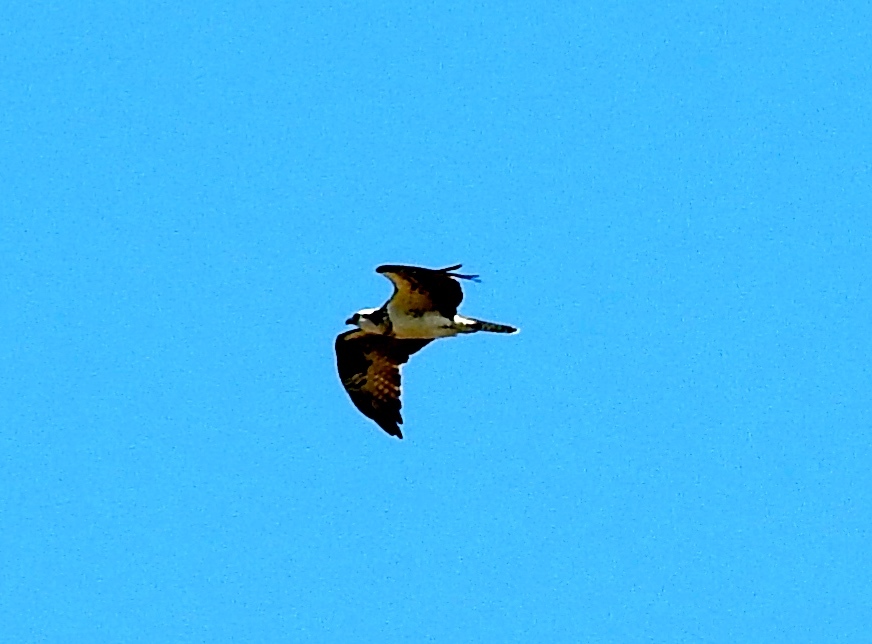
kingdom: Animalia
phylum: Chordata
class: Aves
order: Accipitriformes
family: Pandionidae
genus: Pandion
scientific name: Pandion haliaetus
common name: Osprey
